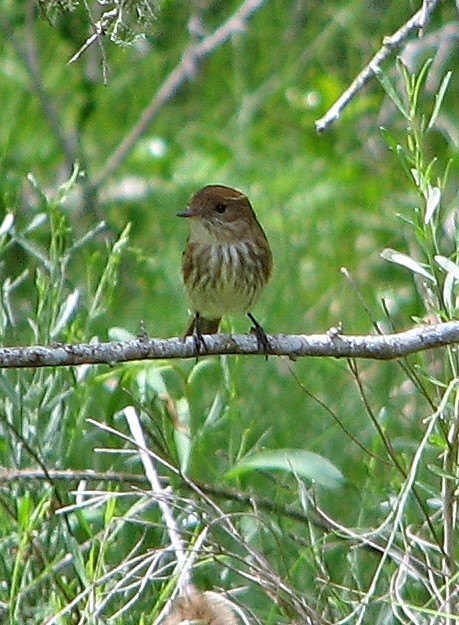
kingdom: Animalia
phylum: Chordata
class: Aves
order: Passeriformes
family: Tyrannidae
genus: Myiophobus
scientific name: Myiophobus fasciatus
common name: Bran-colored flycatcher
